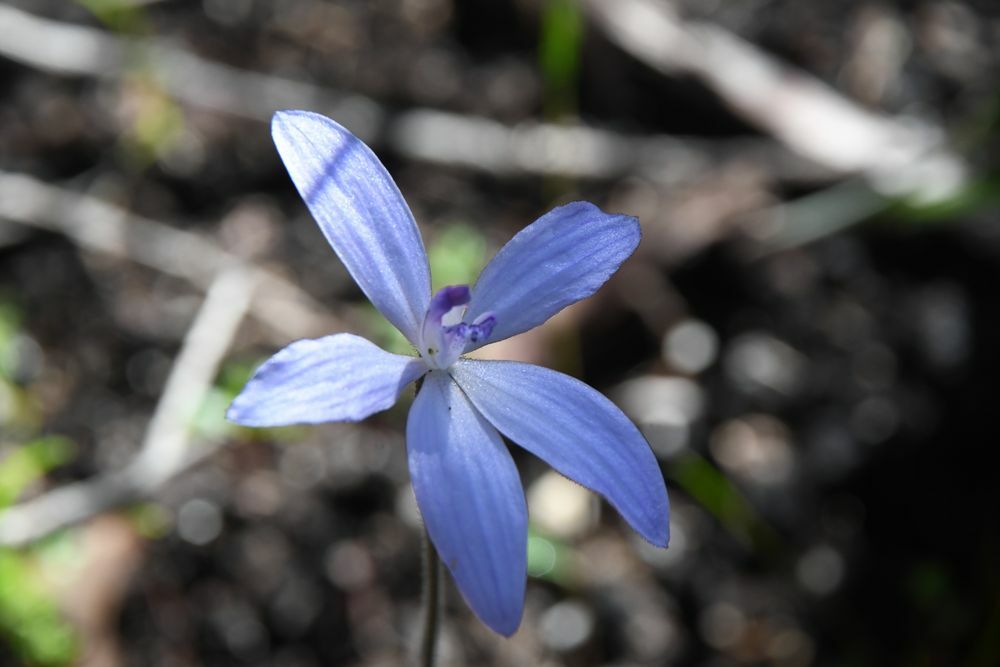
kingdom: Plantae
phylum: Tracheophyta
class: Liliopsida
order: Asparagales
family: Orchidaceae
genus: Caladenia
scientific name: Caladenia sericea
